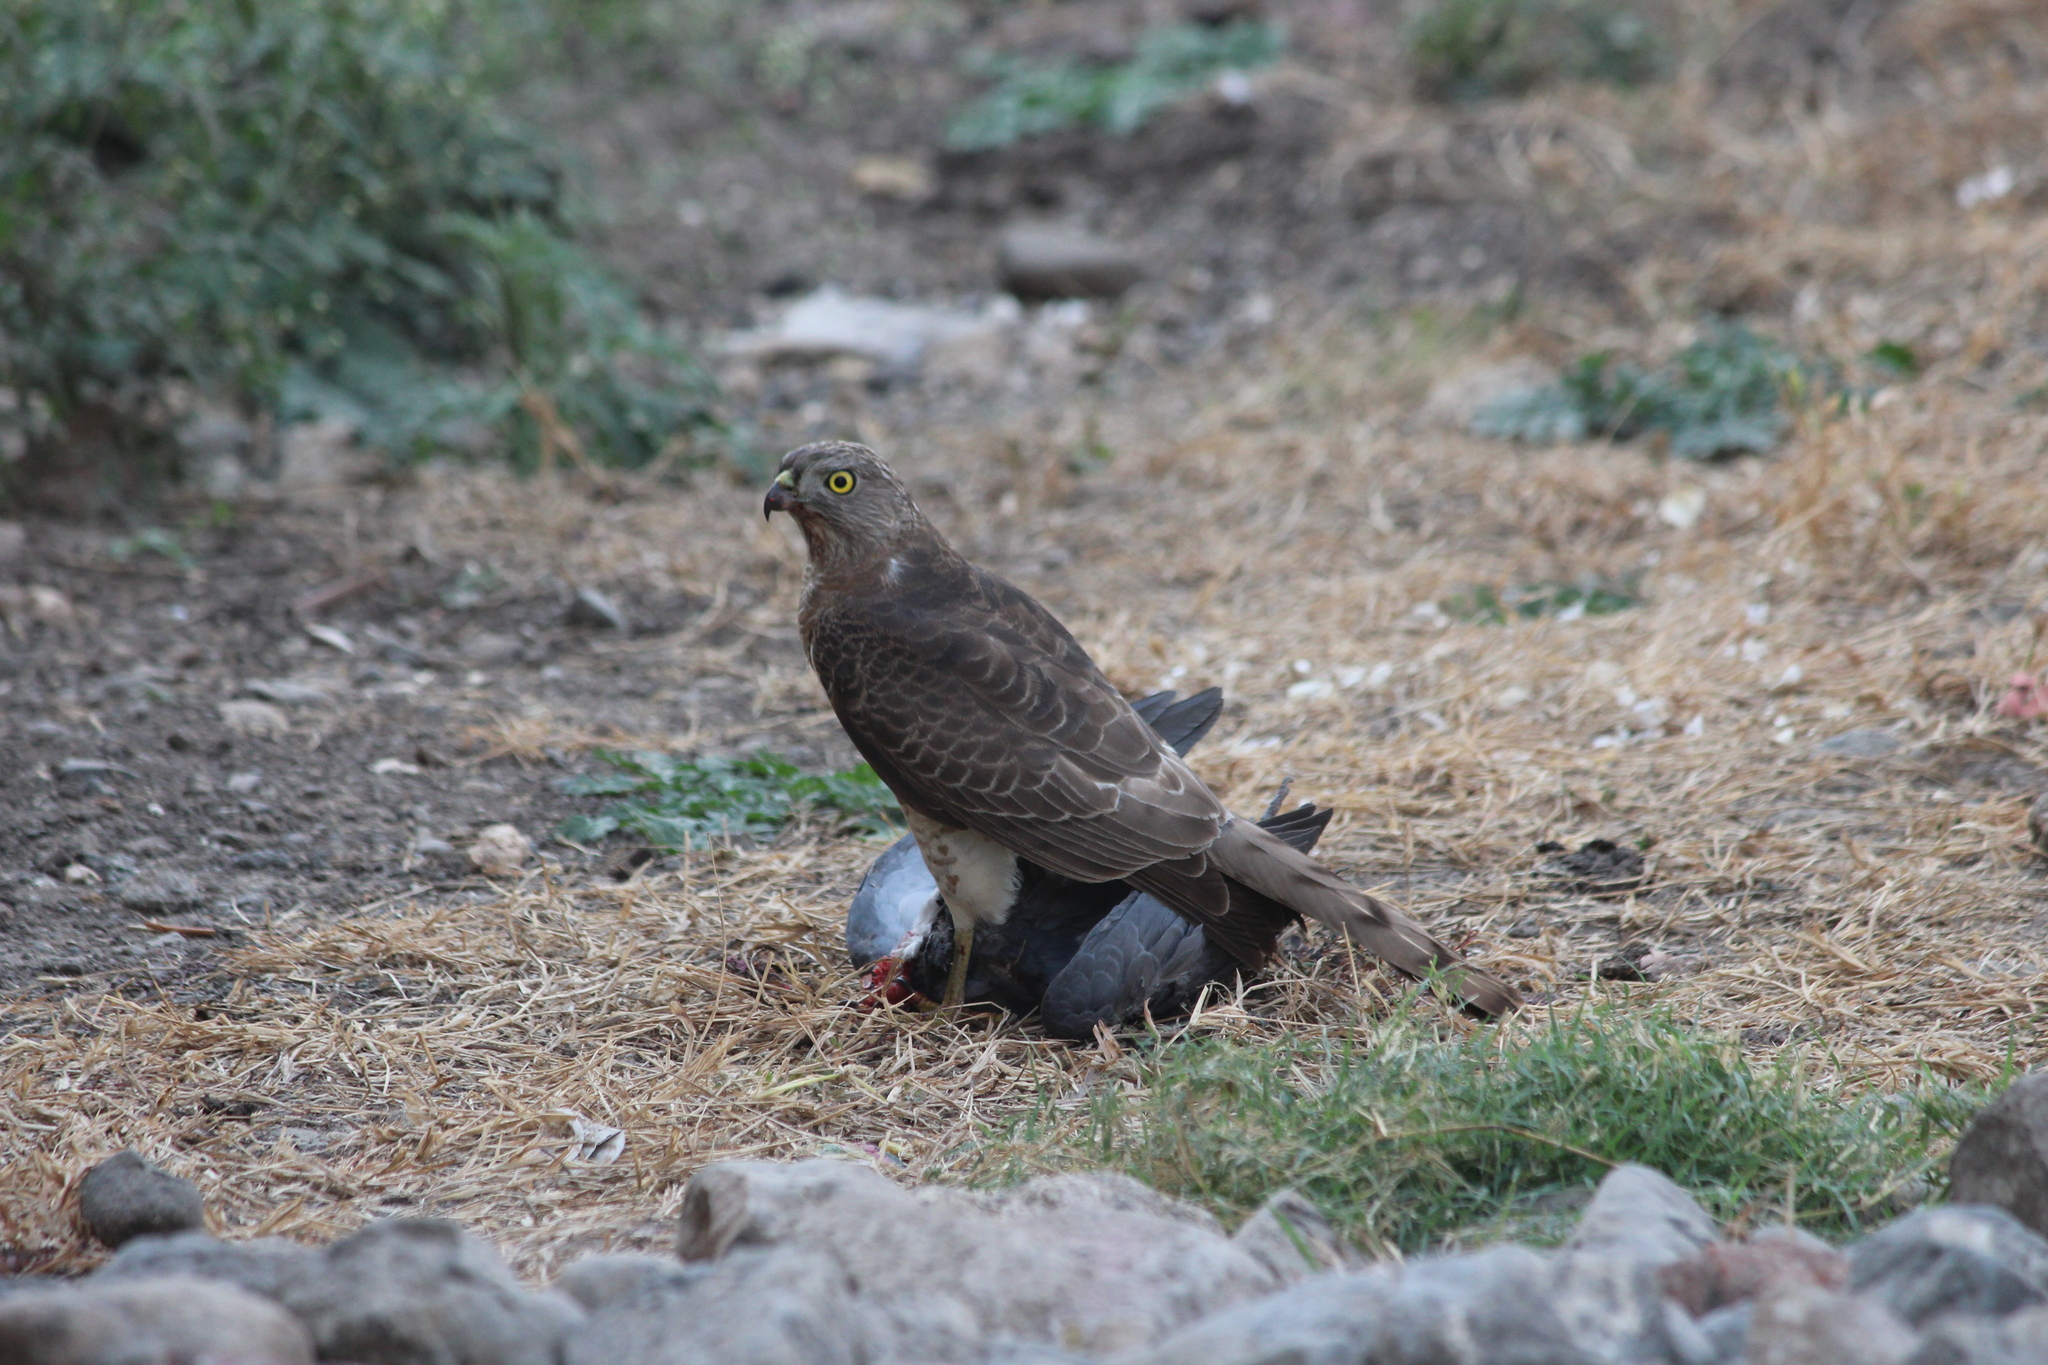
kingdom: Animalia
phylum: Chordata
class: Aves
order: Accipitriformes
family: Accipitridae
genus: Accipiter
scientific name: Accipiter badius
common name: Shikra
